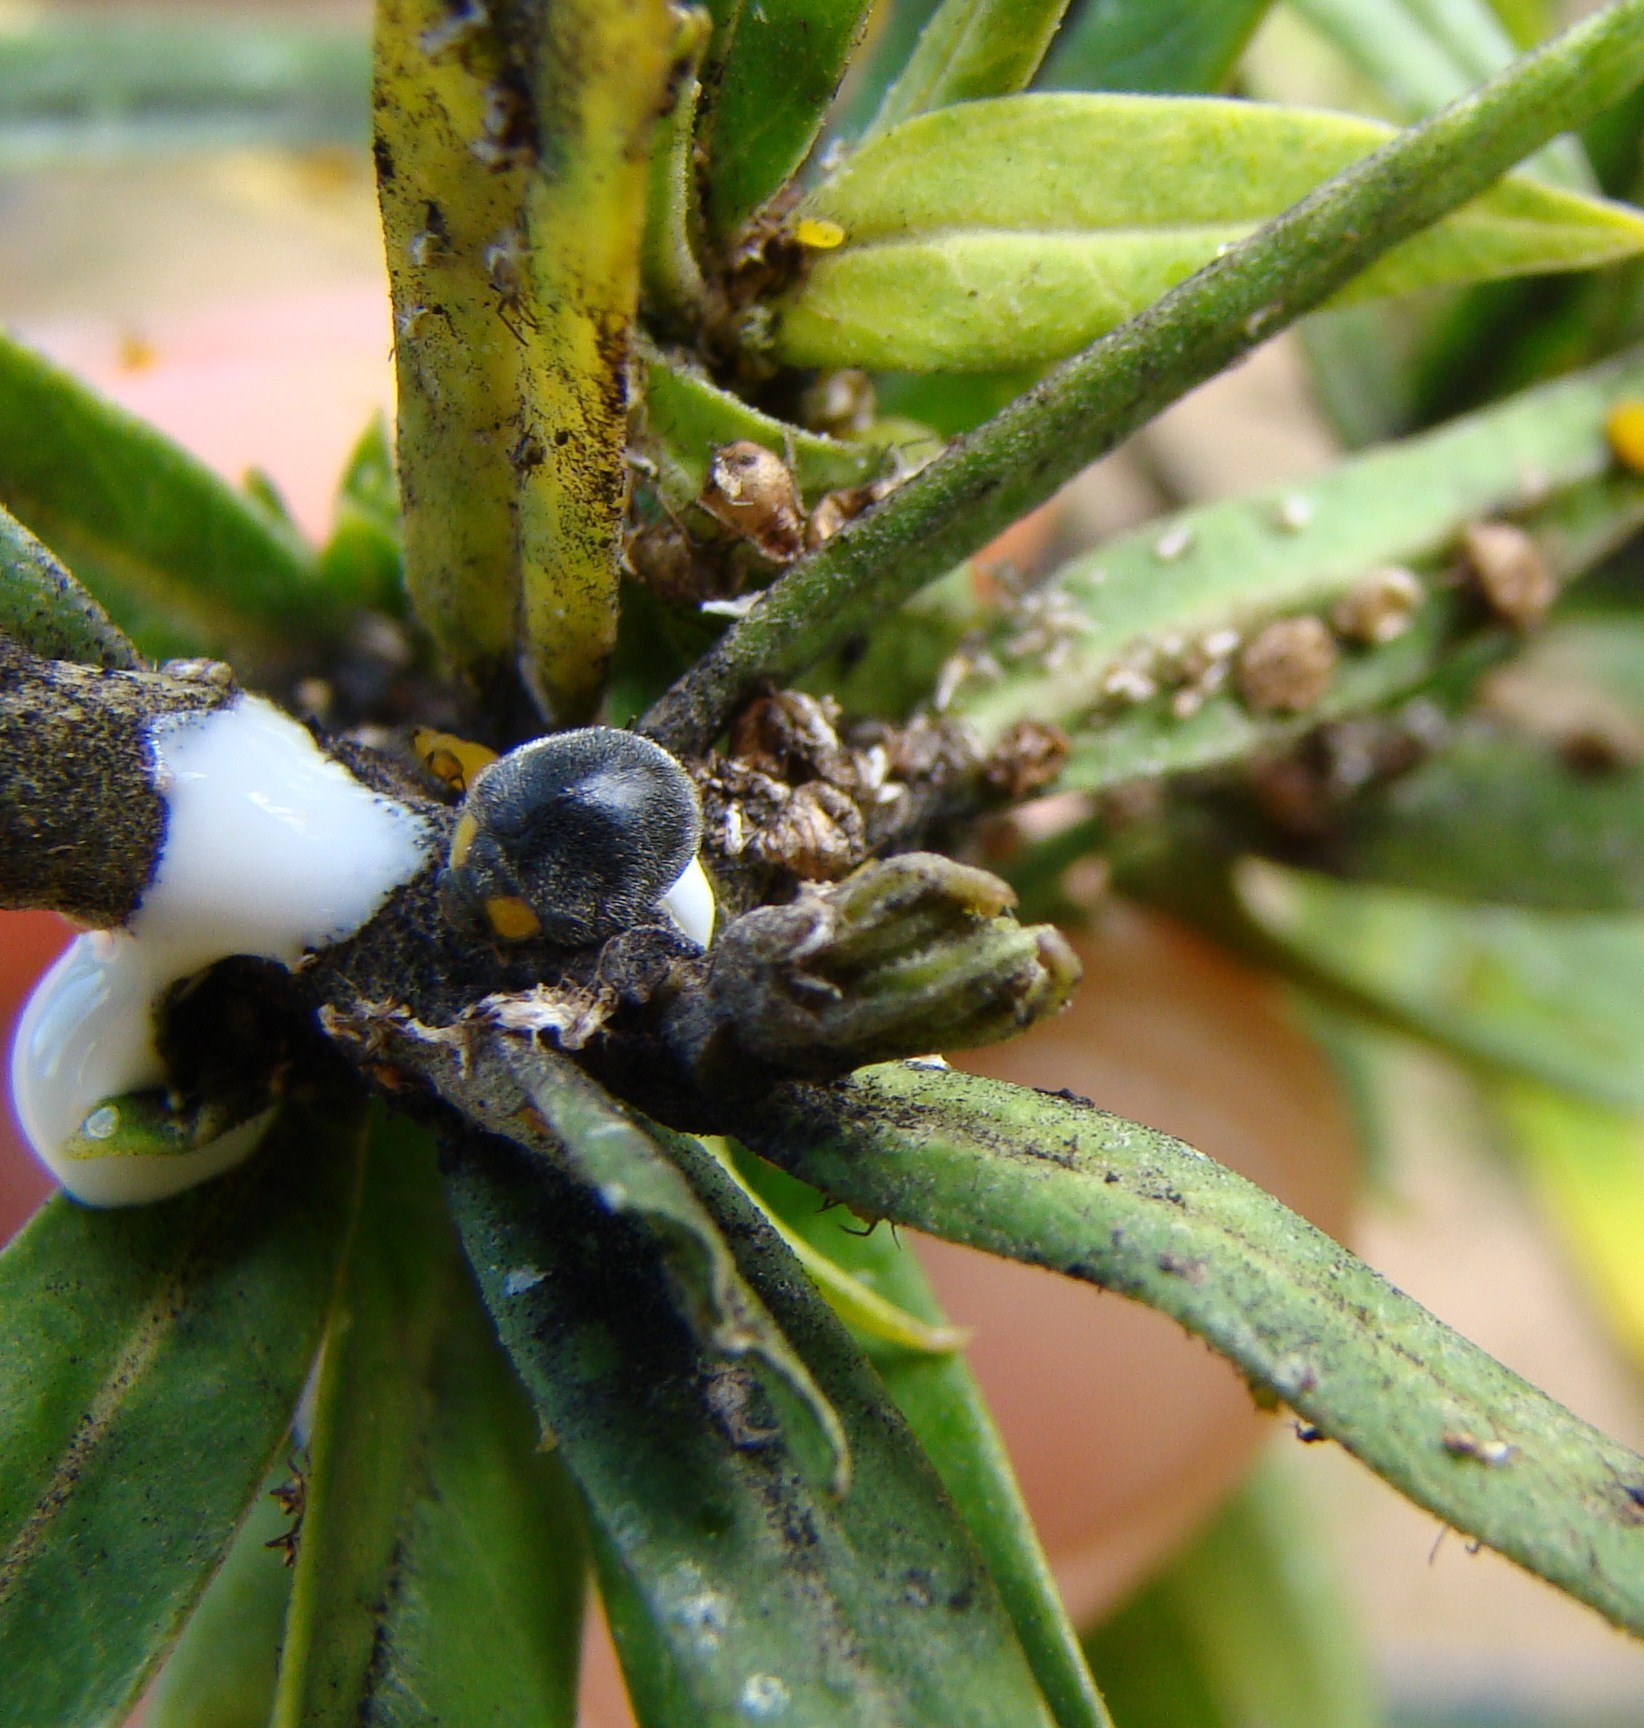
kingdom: Animalia
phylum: Arthropoda
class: Insecta
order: Coleoptera
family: Coccinellidae
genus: Scymnodes
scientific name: Scymnodes lividigaster
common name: Yellowshouldered lady beetle
